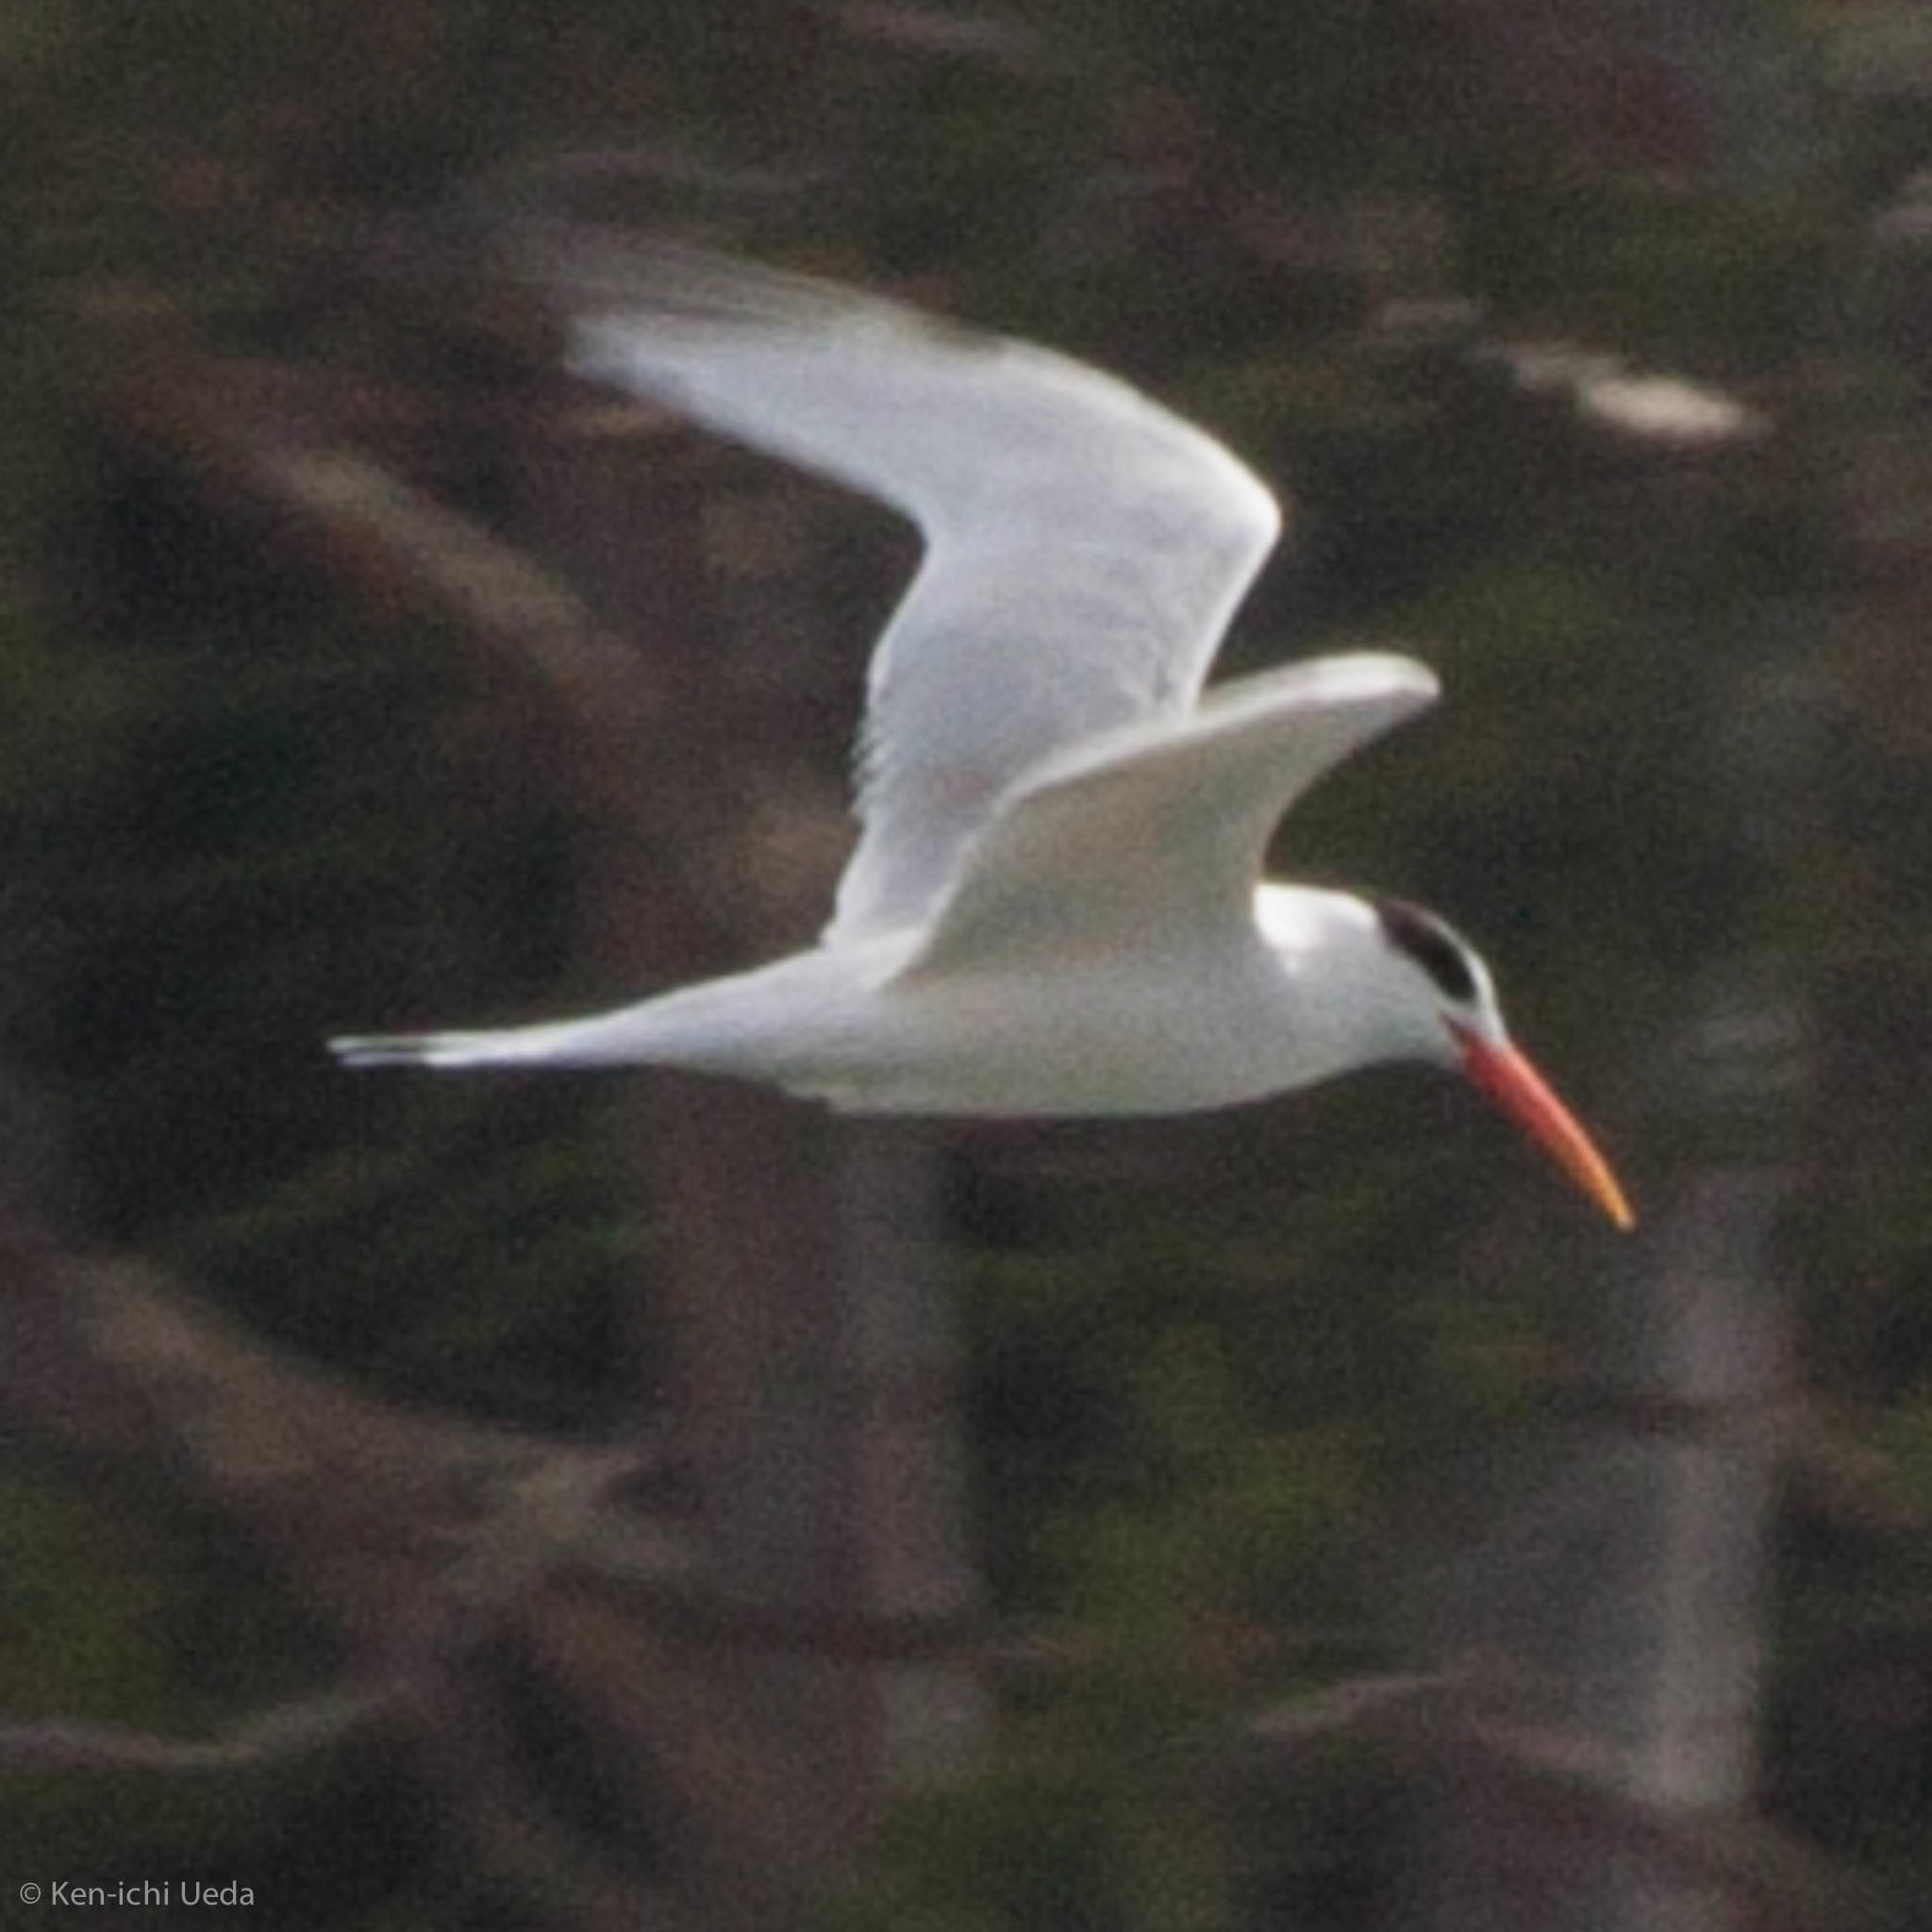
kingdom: Animalia
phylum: Chordata
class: Aves
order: Charadriiformes
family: Laridae
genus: Thalasseus
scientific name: Thalasseus elegans
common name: Elegant tern
